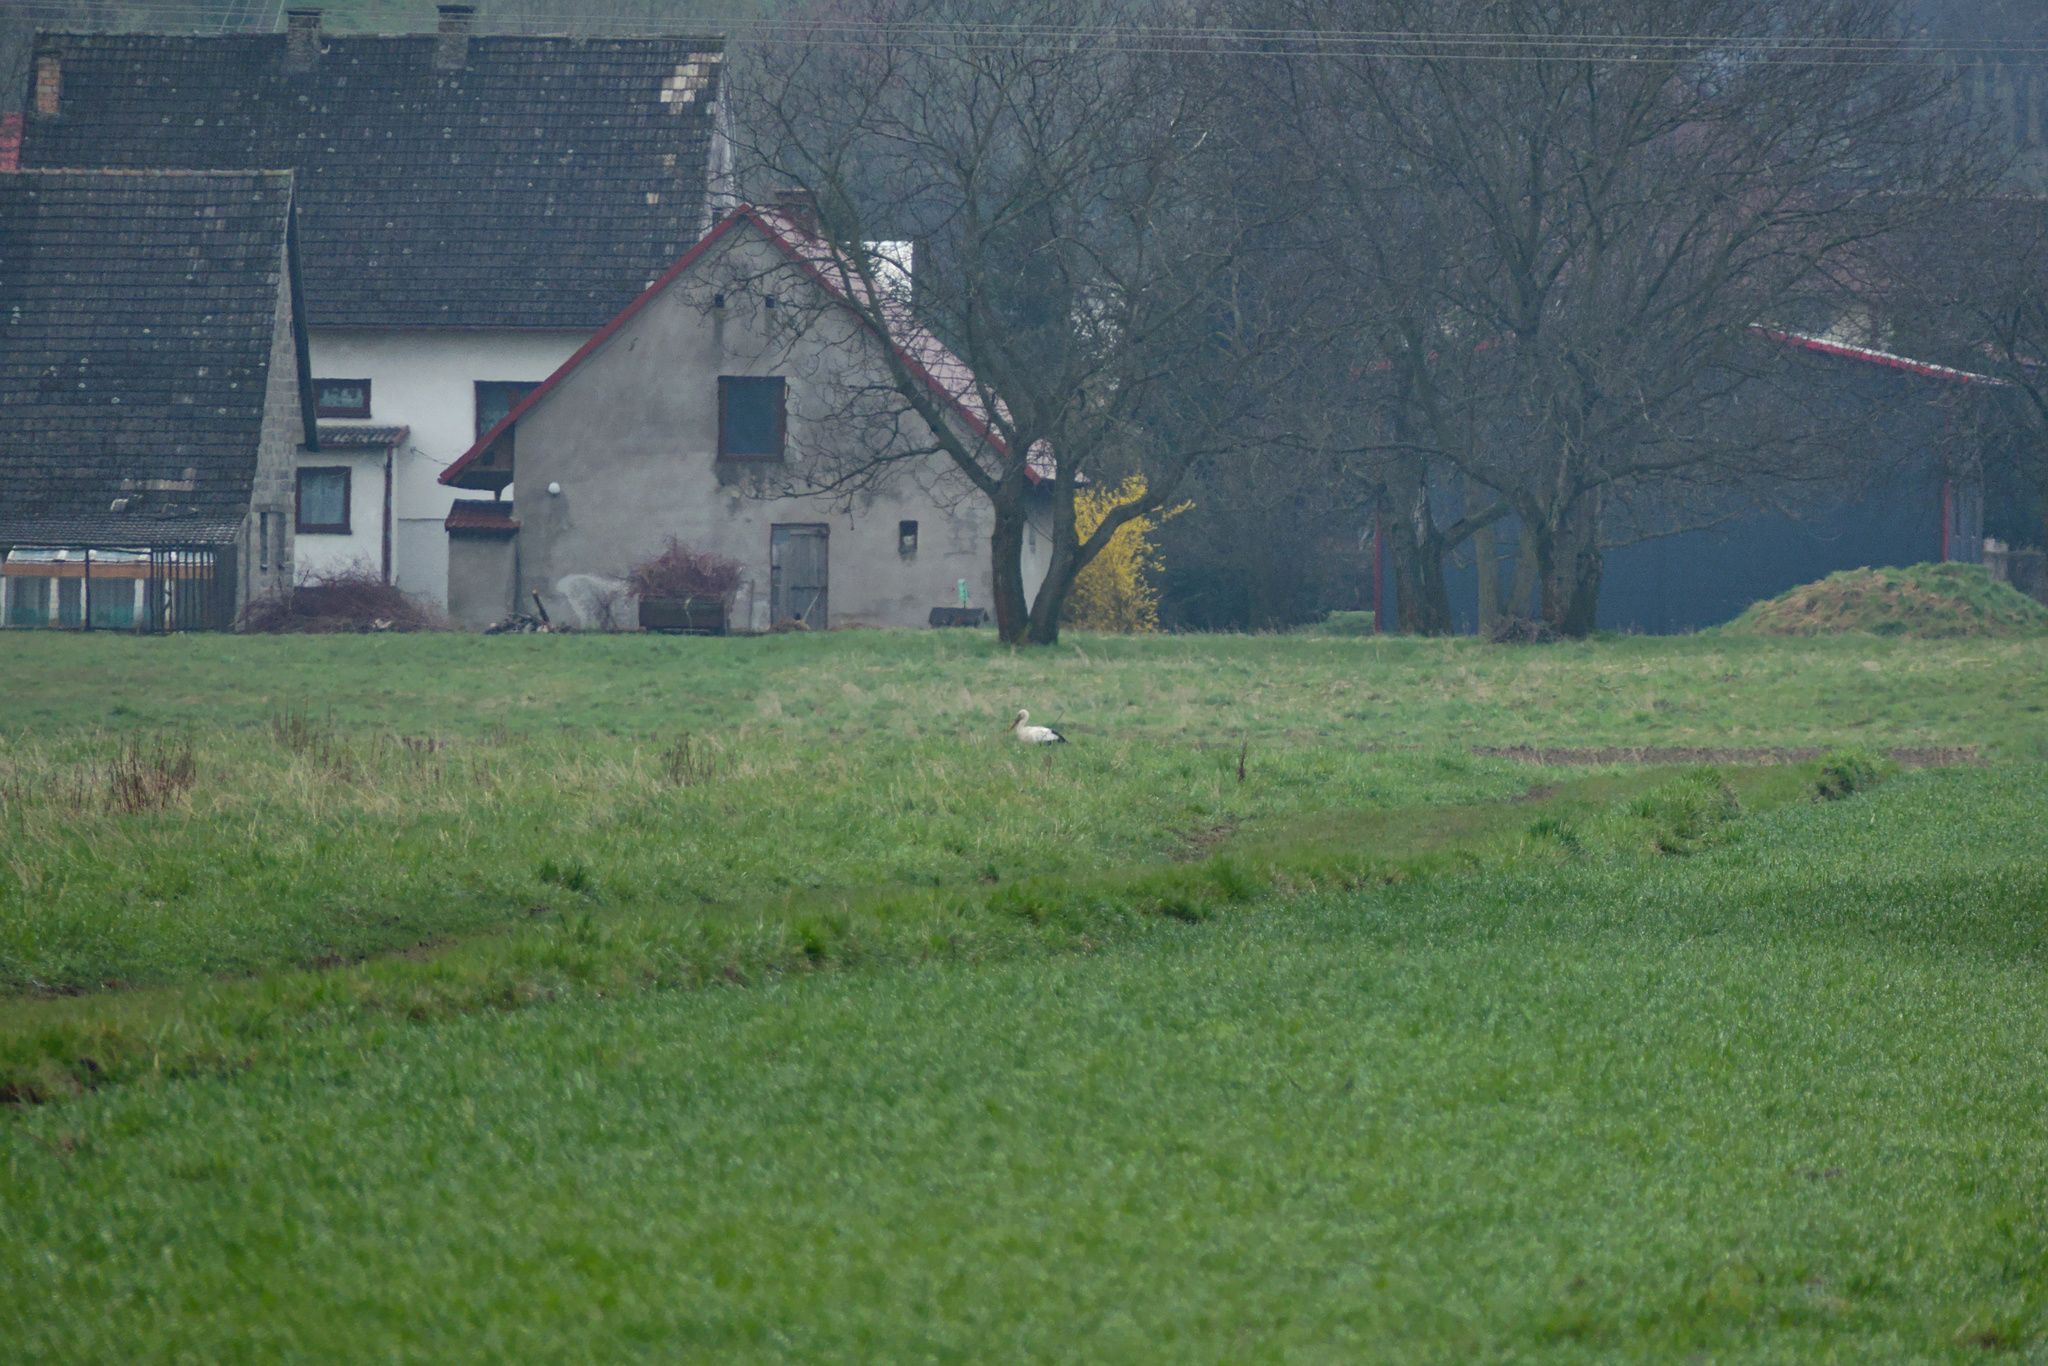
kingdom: Animalia
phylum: Chordata
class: Aves
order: Ciconiiformes
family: Ciconiidae
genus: Ciconia
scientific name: Ciconia ciconia
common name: White stork
